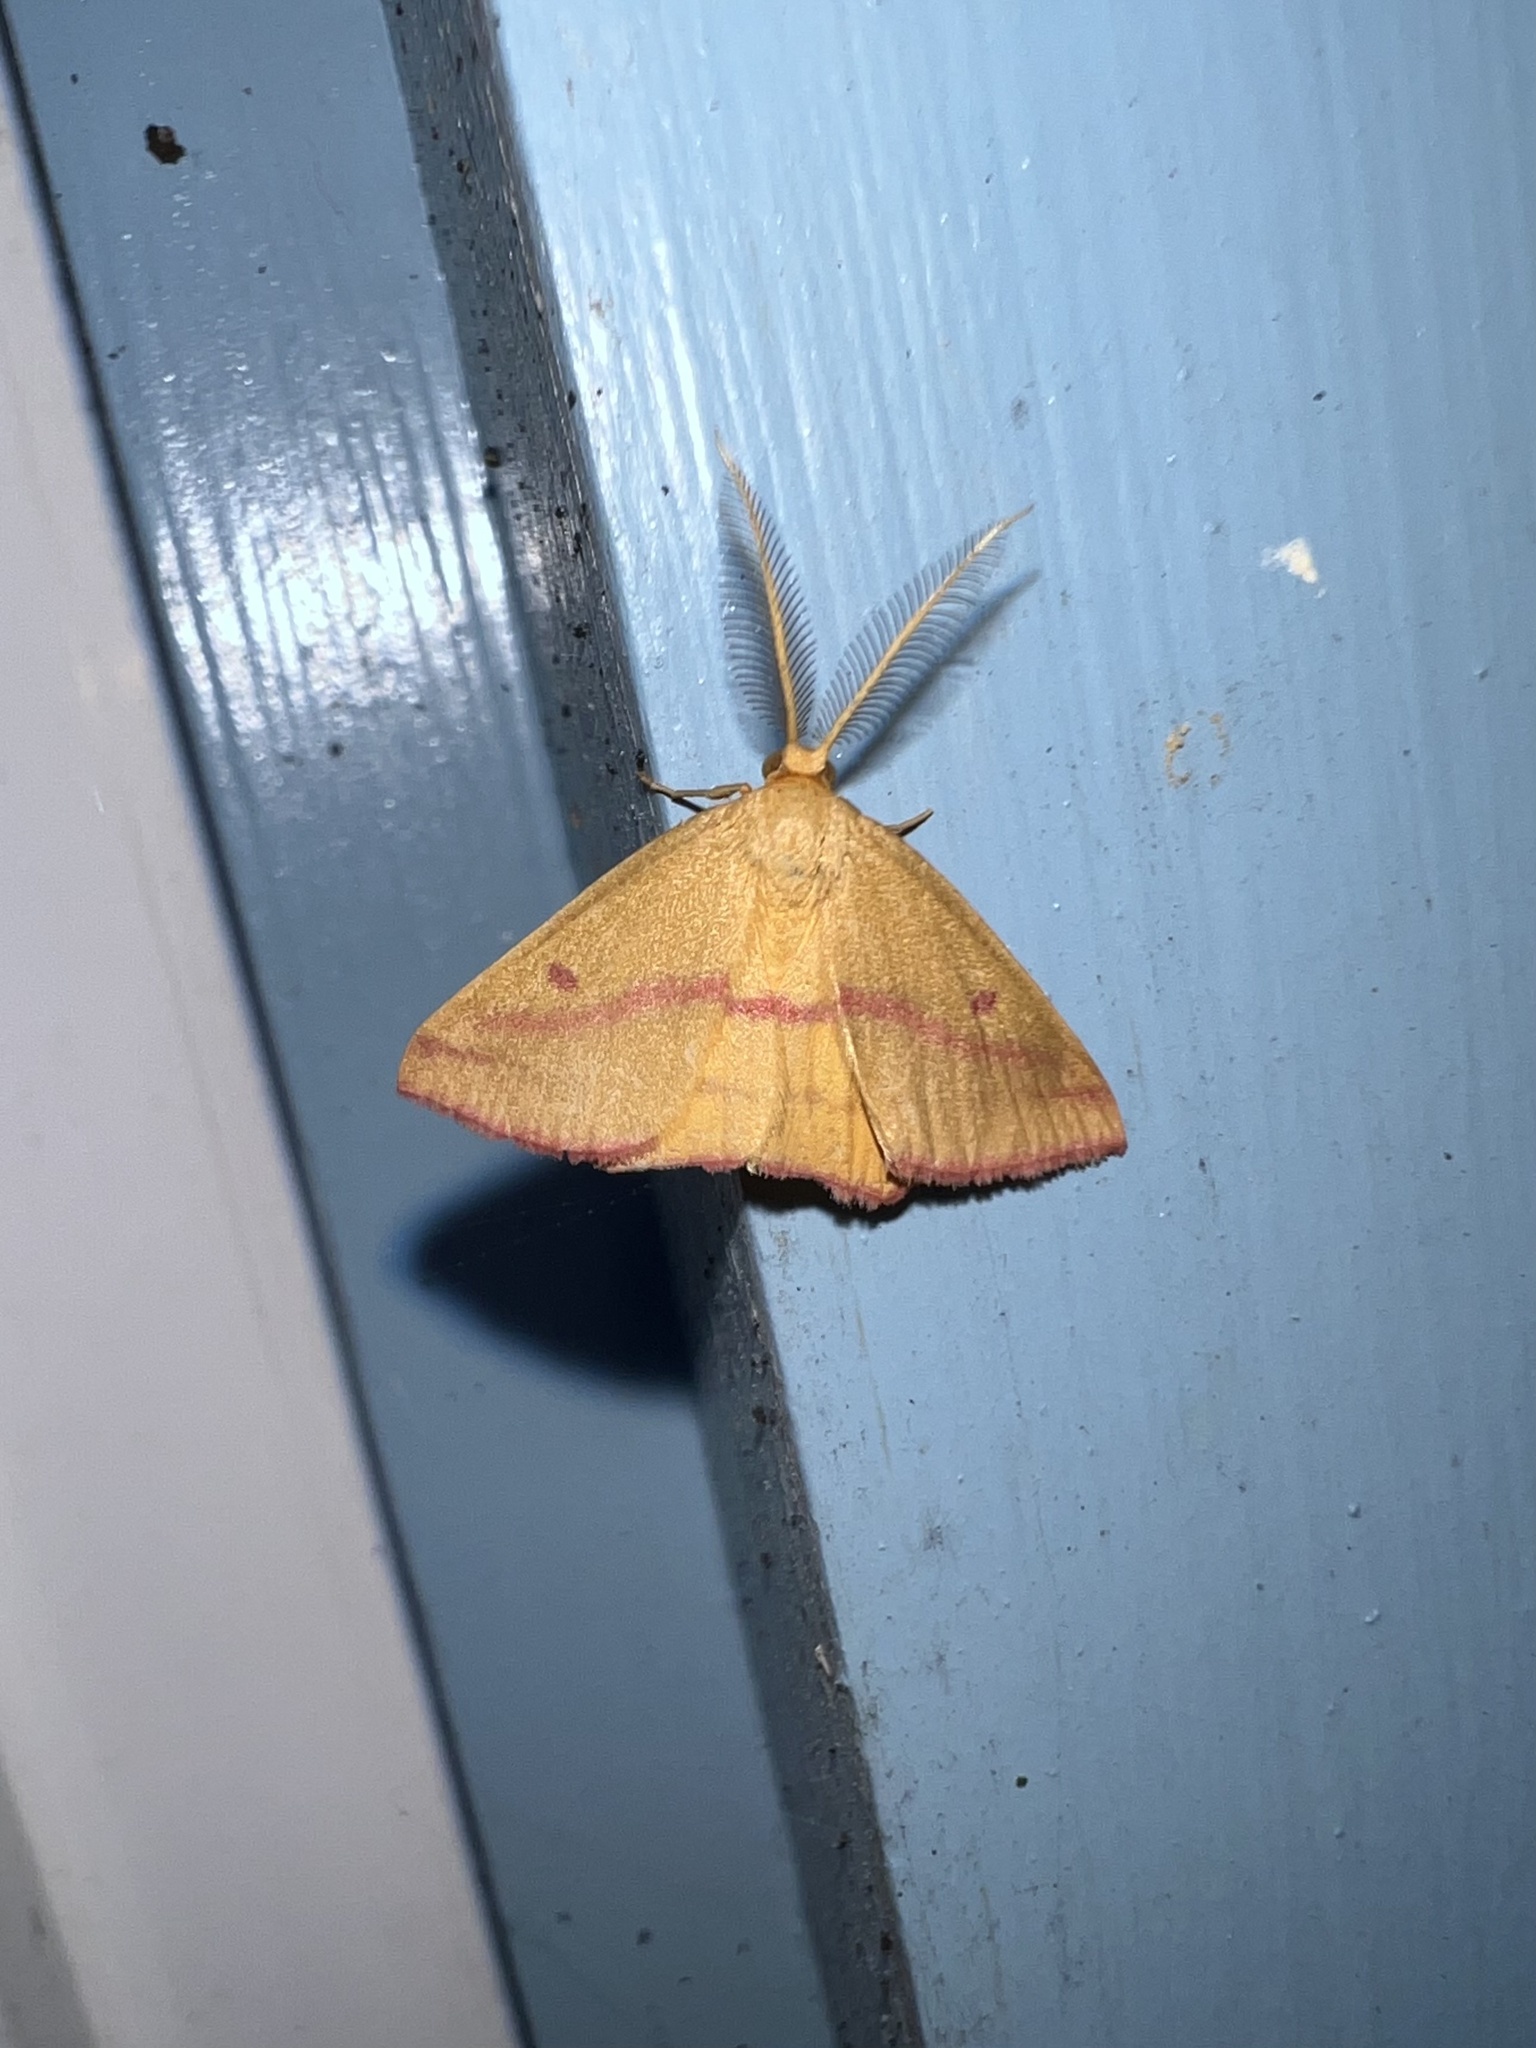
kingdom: Animalia
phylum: Arthropoda
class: Insecta
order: Lepidoptera
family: Geometridae
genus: Haematopis
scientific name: Haematopis grataria
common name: Chickweed geometer
